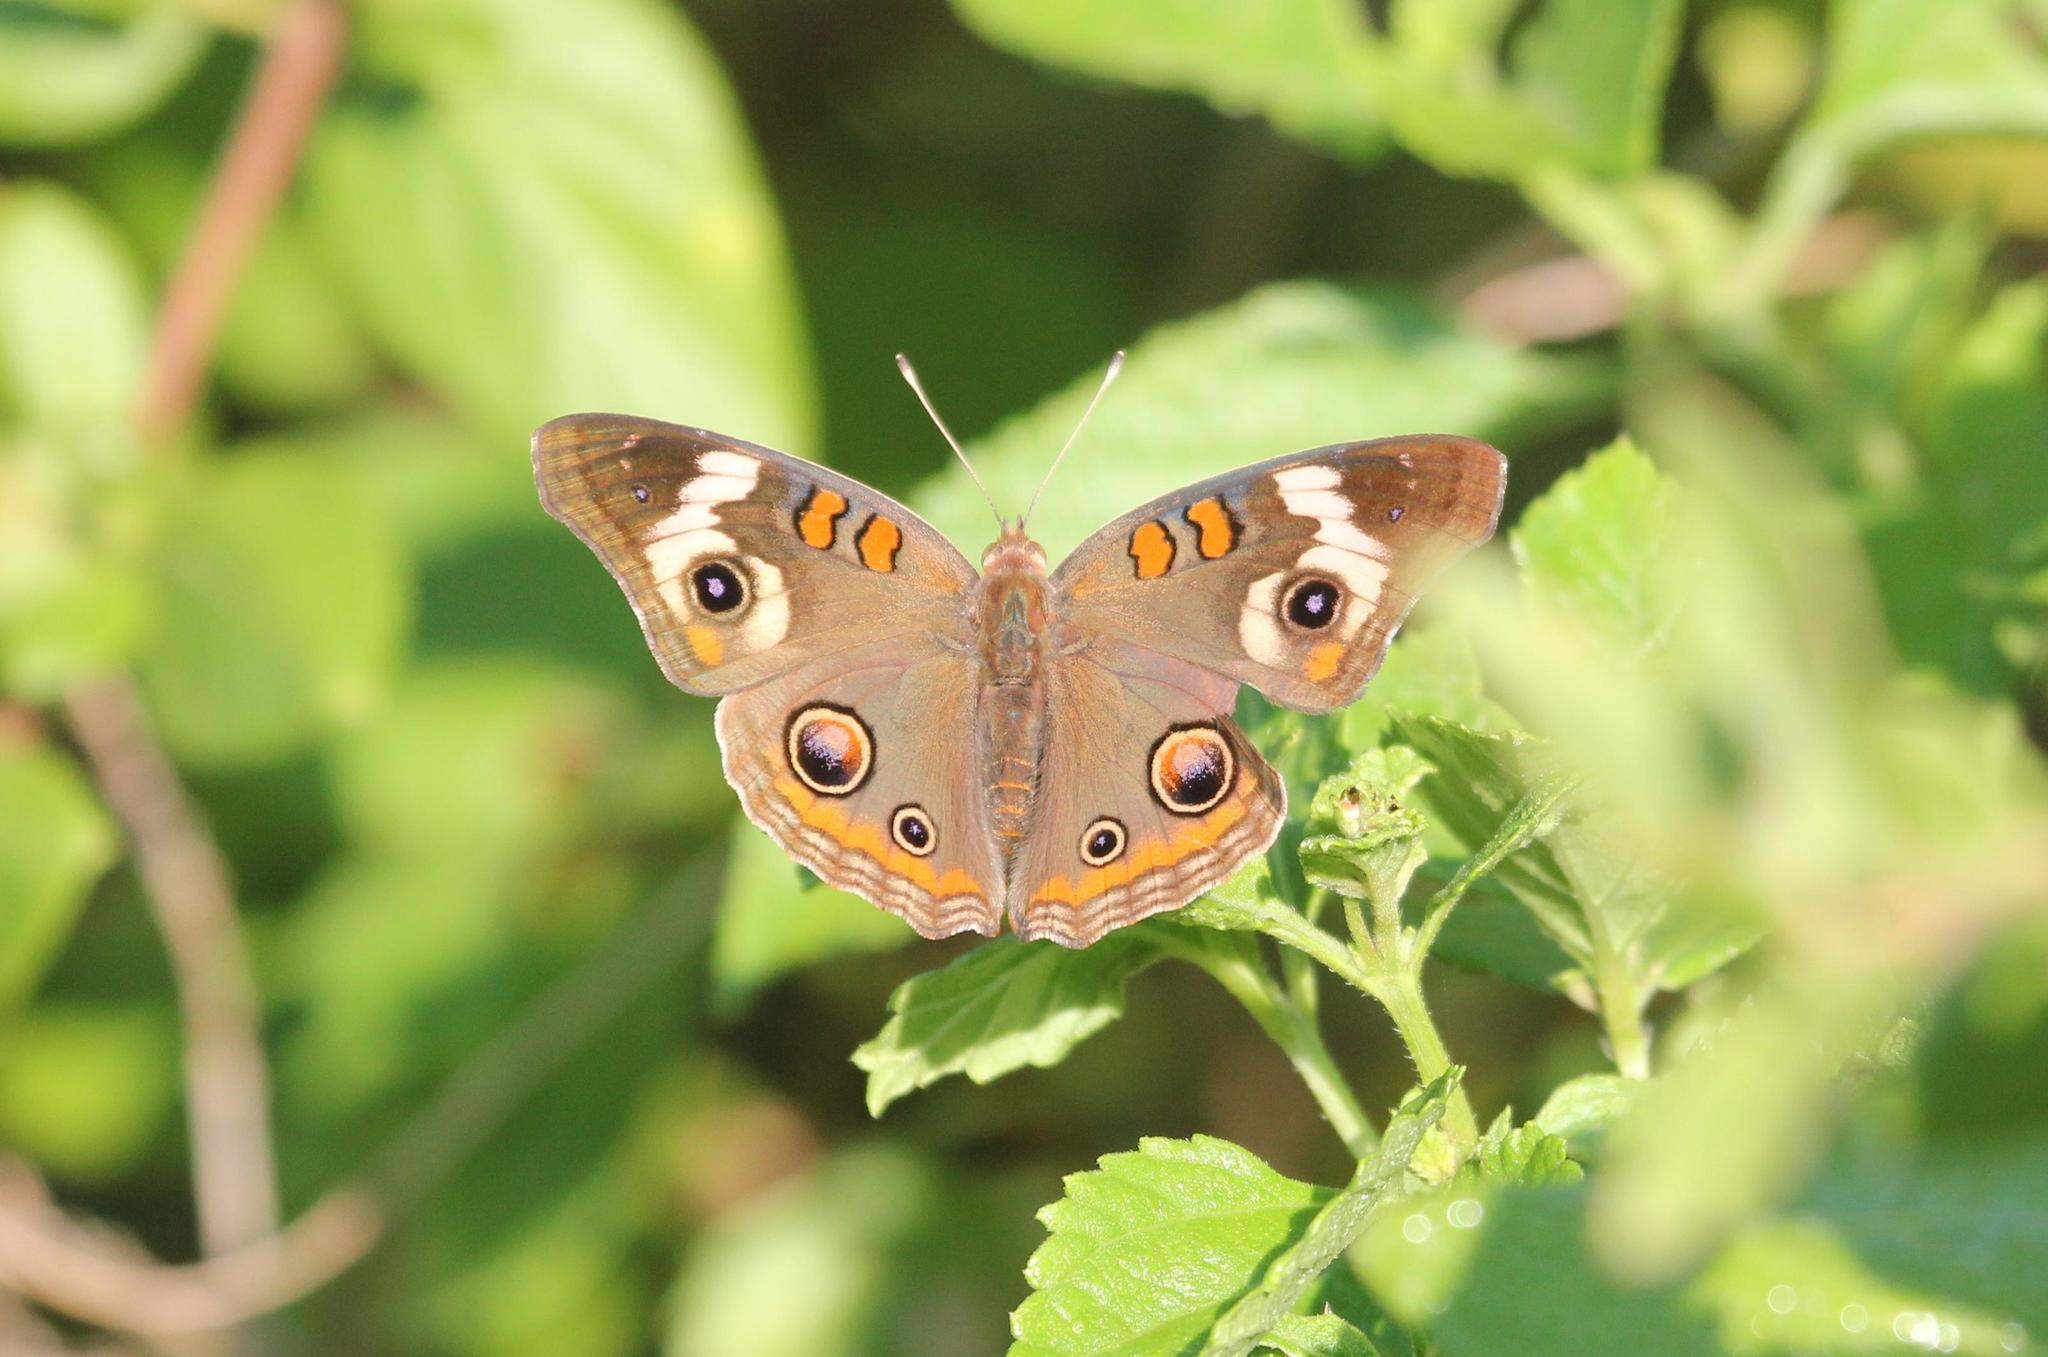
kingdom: Animalia
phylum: Arthropoda
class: Insecta
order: Lepidoptera
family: Nymphalidae
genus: Junonia
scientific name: Junonia coenia
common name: Common buckeye
